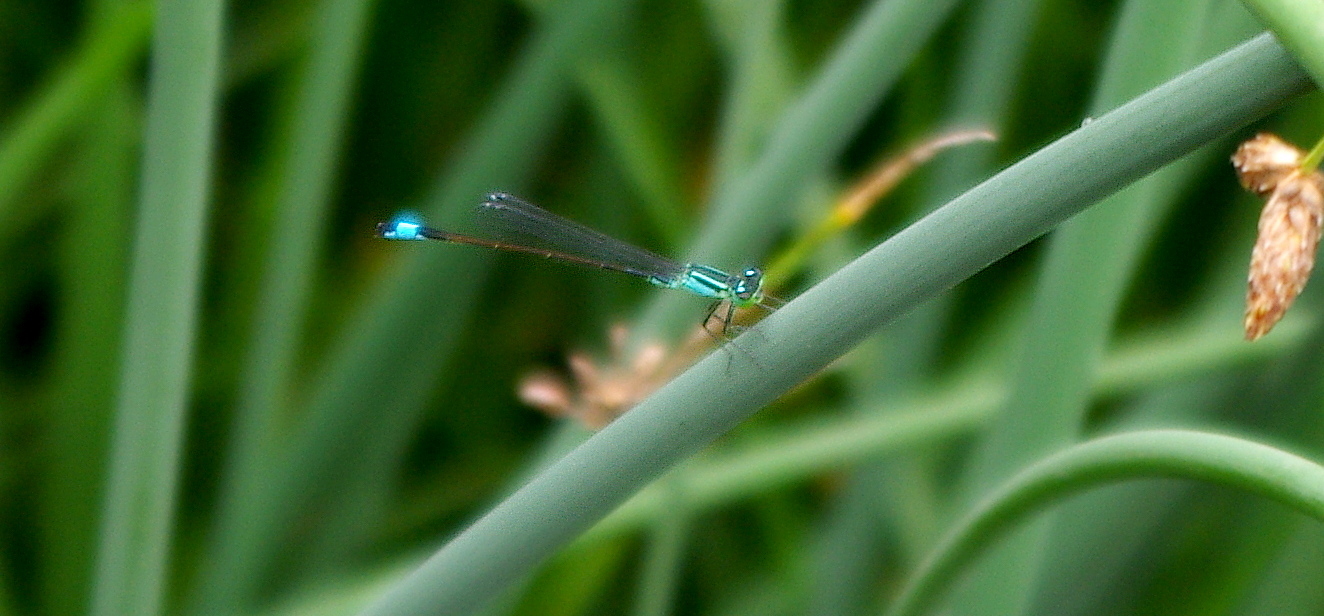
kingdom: Animalia
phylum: Arthropoda
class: Insecta
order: Odonata
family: Coenagrionidae
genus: Ischnura
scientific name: Ischnura elegans
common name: Blue-tailed damselfly
